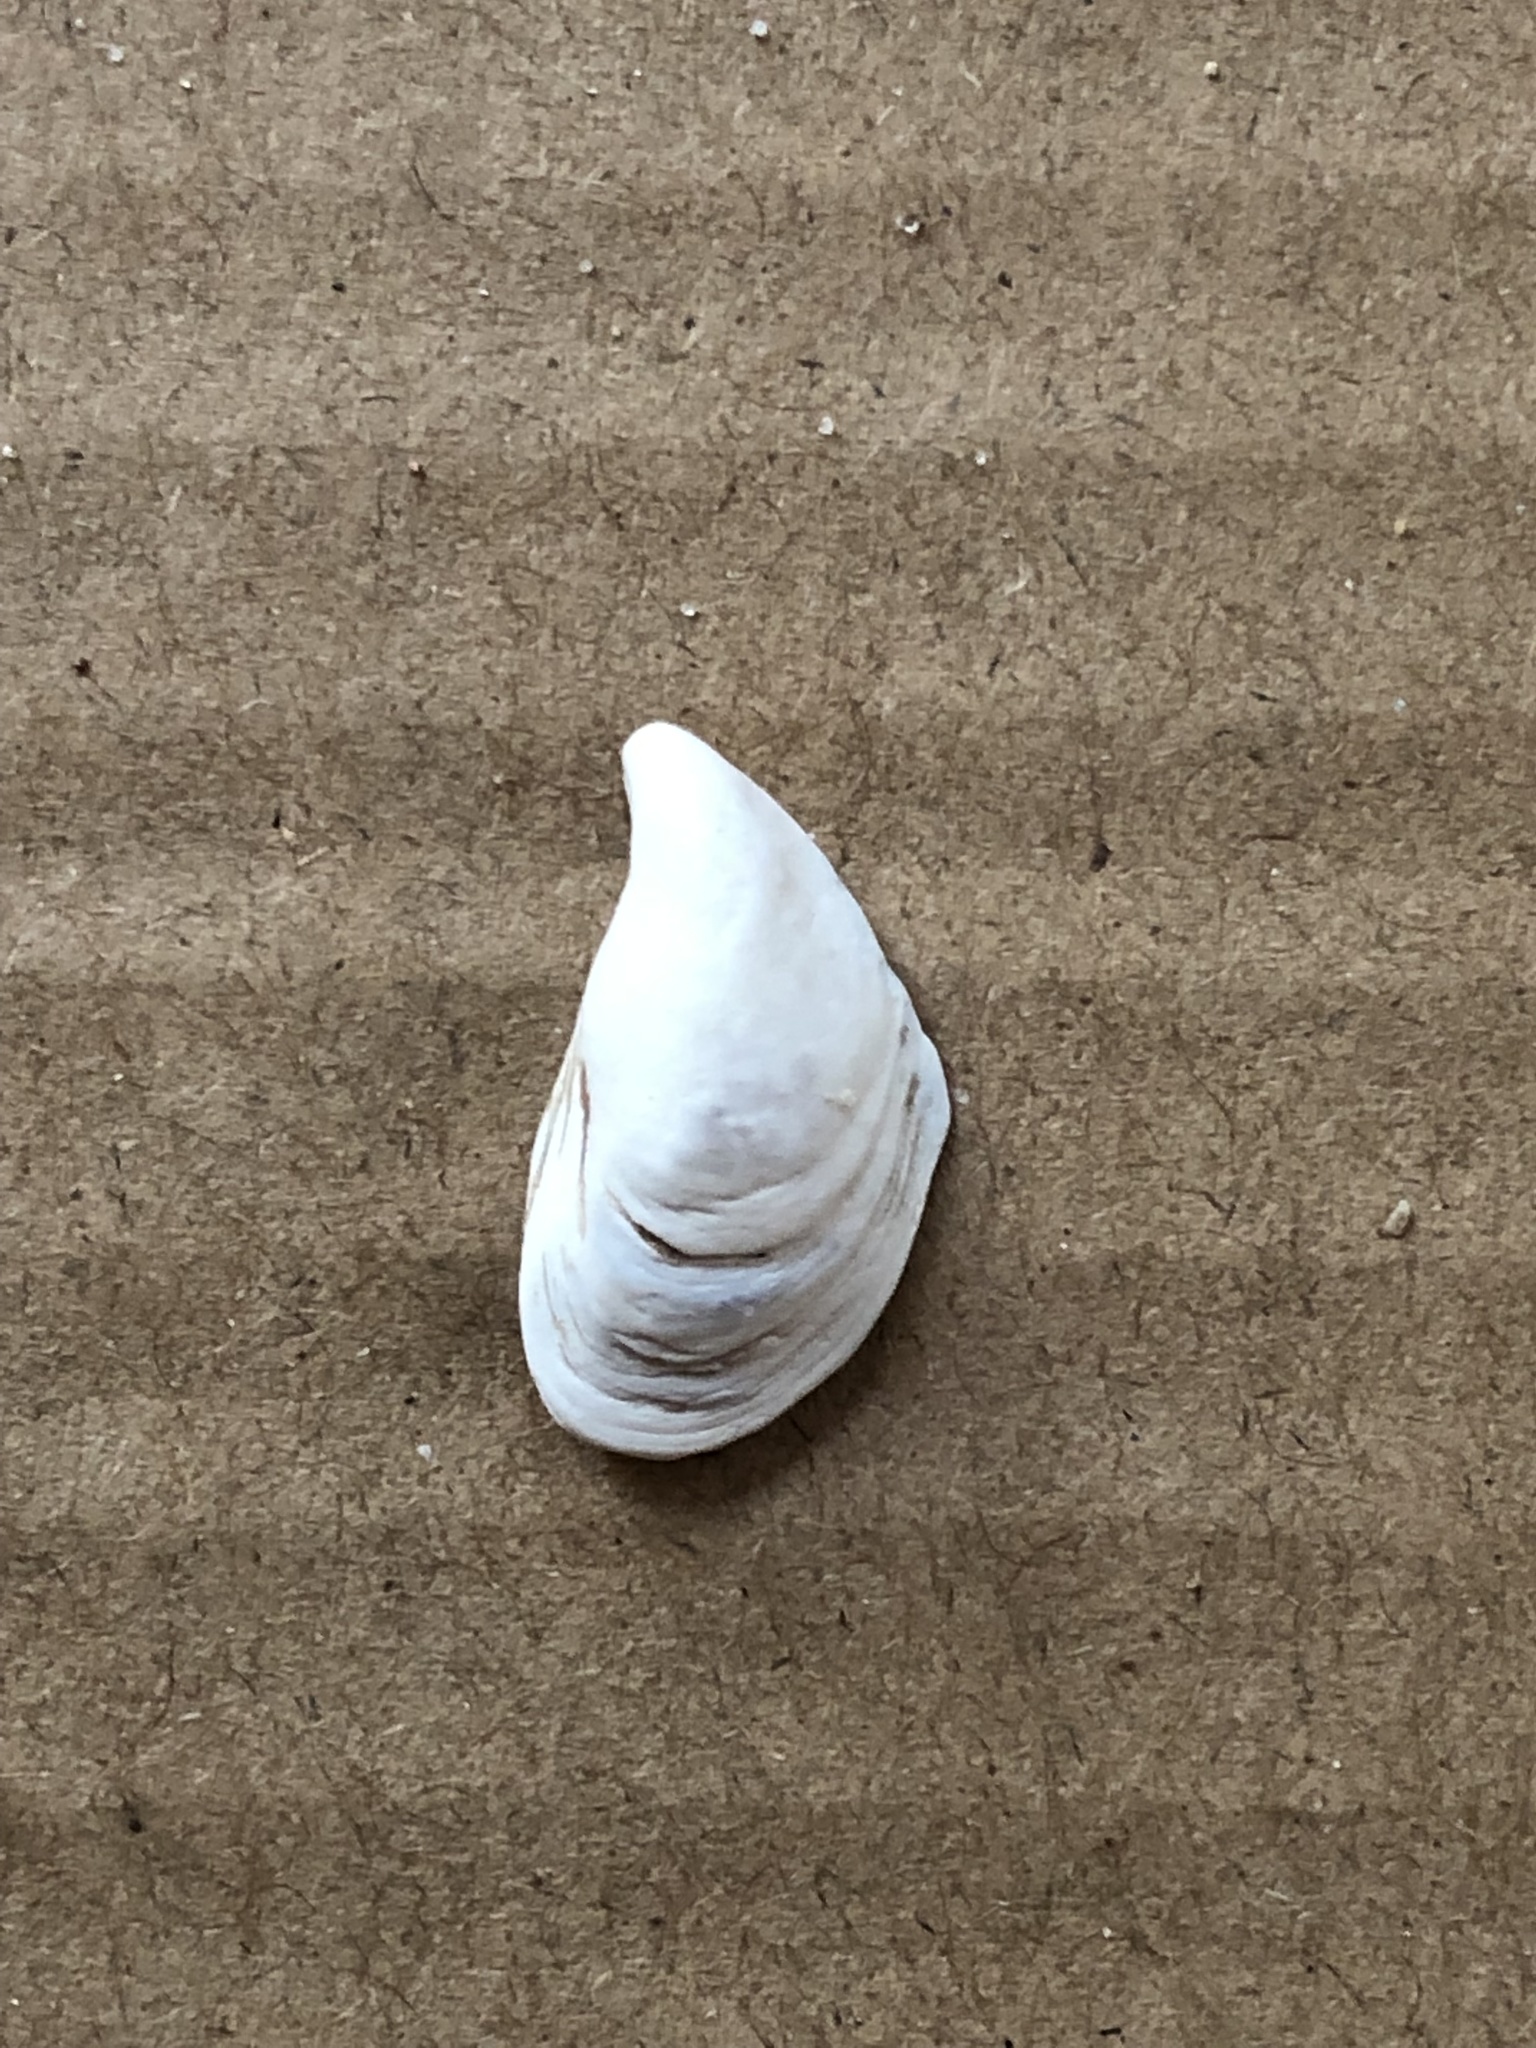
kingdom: Animalia
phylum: Mollusca
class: Bivalvia
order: Myida
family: Dreissenidae
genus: Dreissena
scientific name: Dreissena bugensis
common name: Quagga mussel
